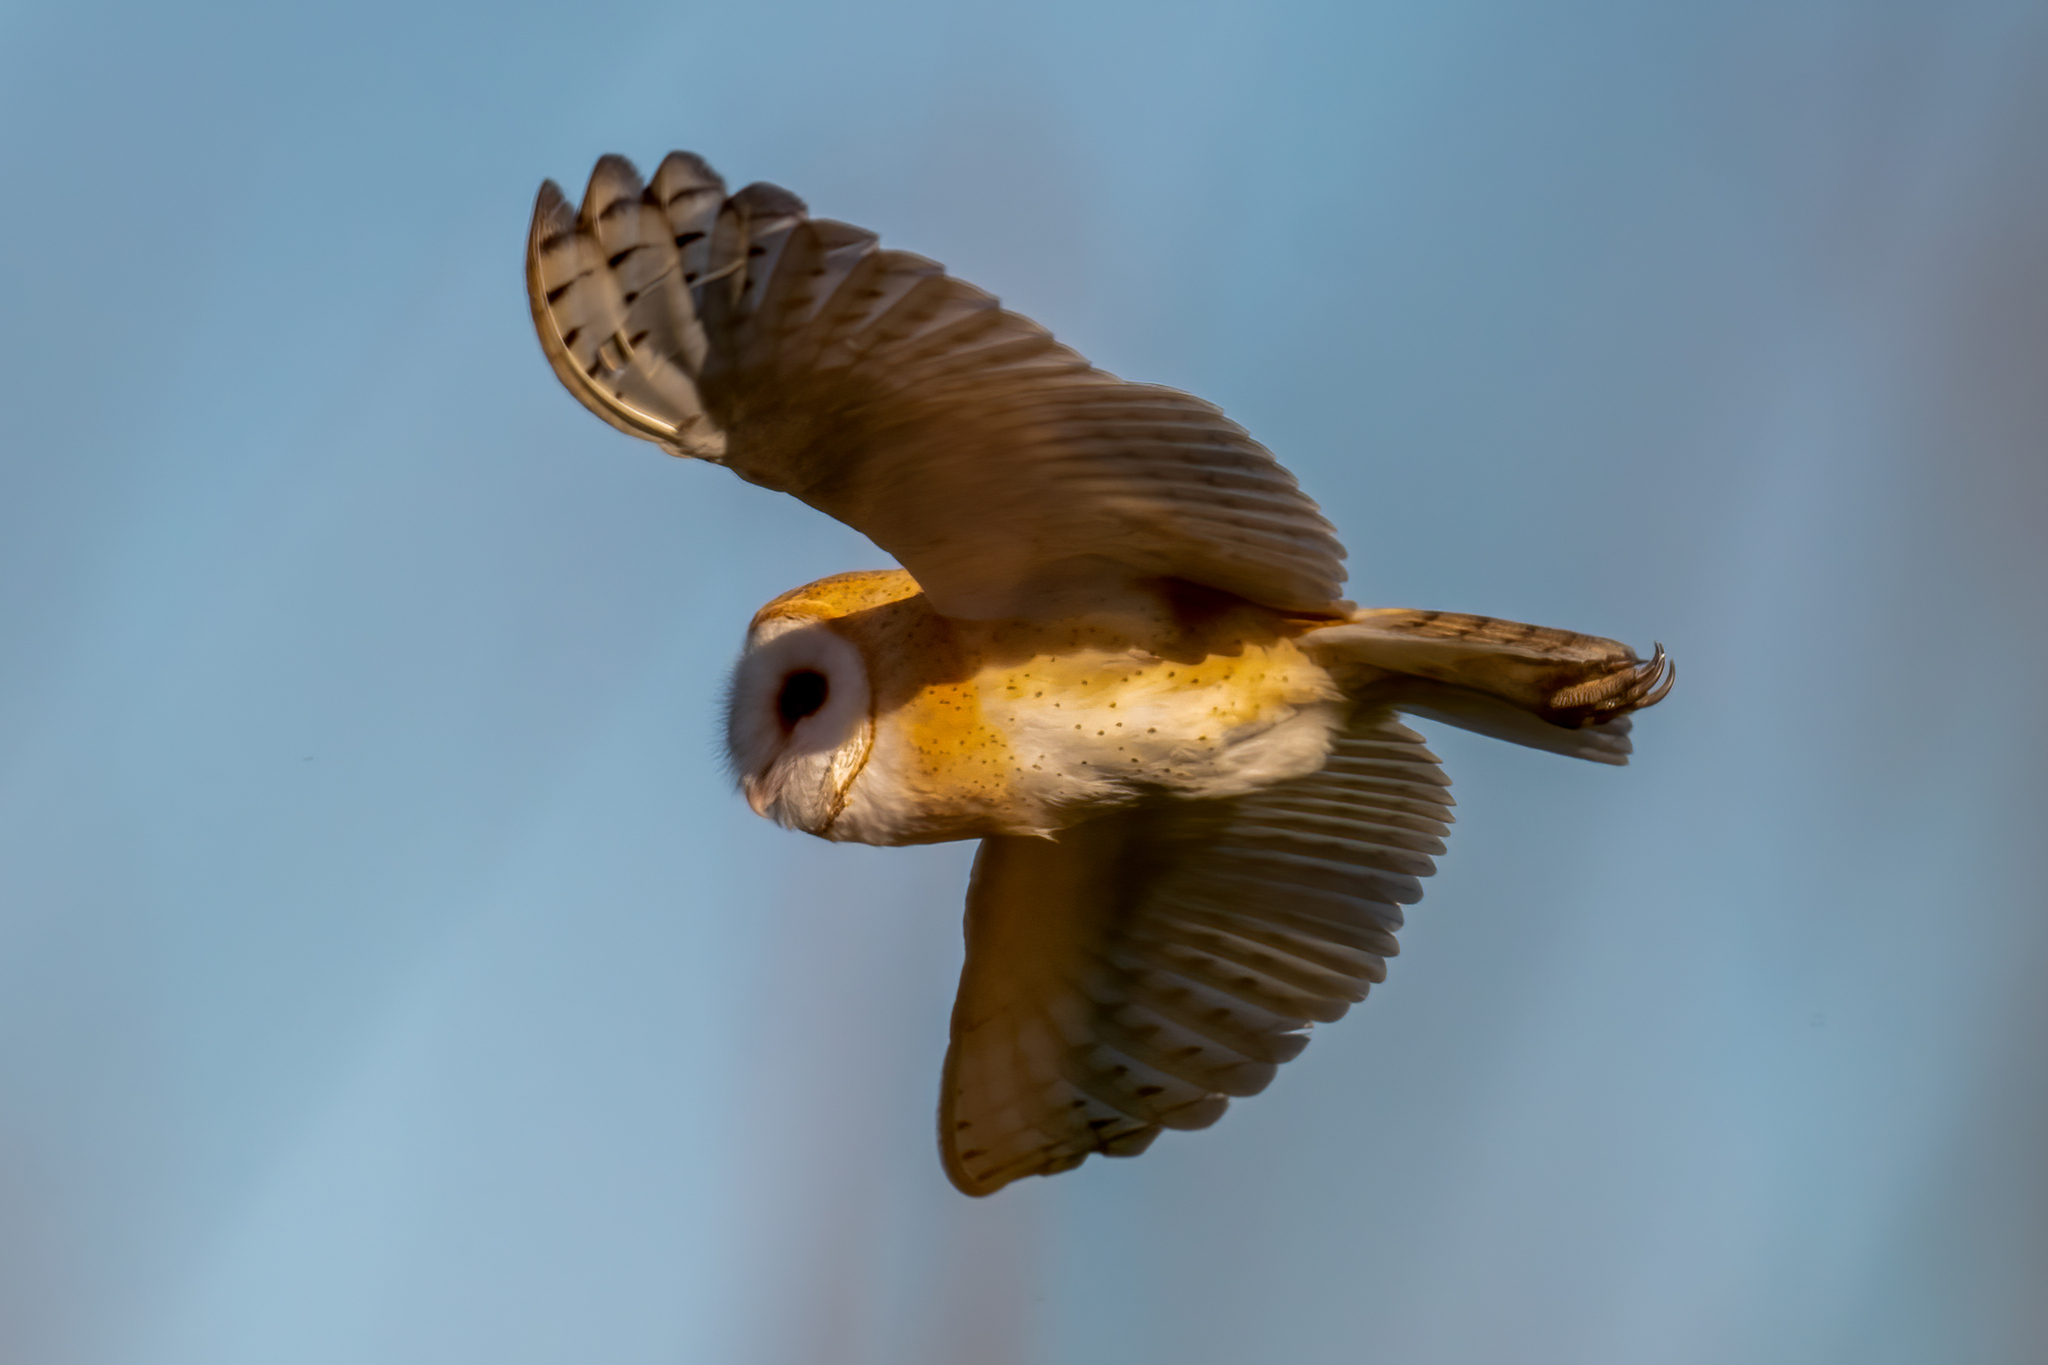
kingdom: Animalia
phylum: Chordata
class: Aves
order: Strigiformes
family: Tytonidae
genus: Tyto
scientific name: Tyto alba
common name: Barn owl
